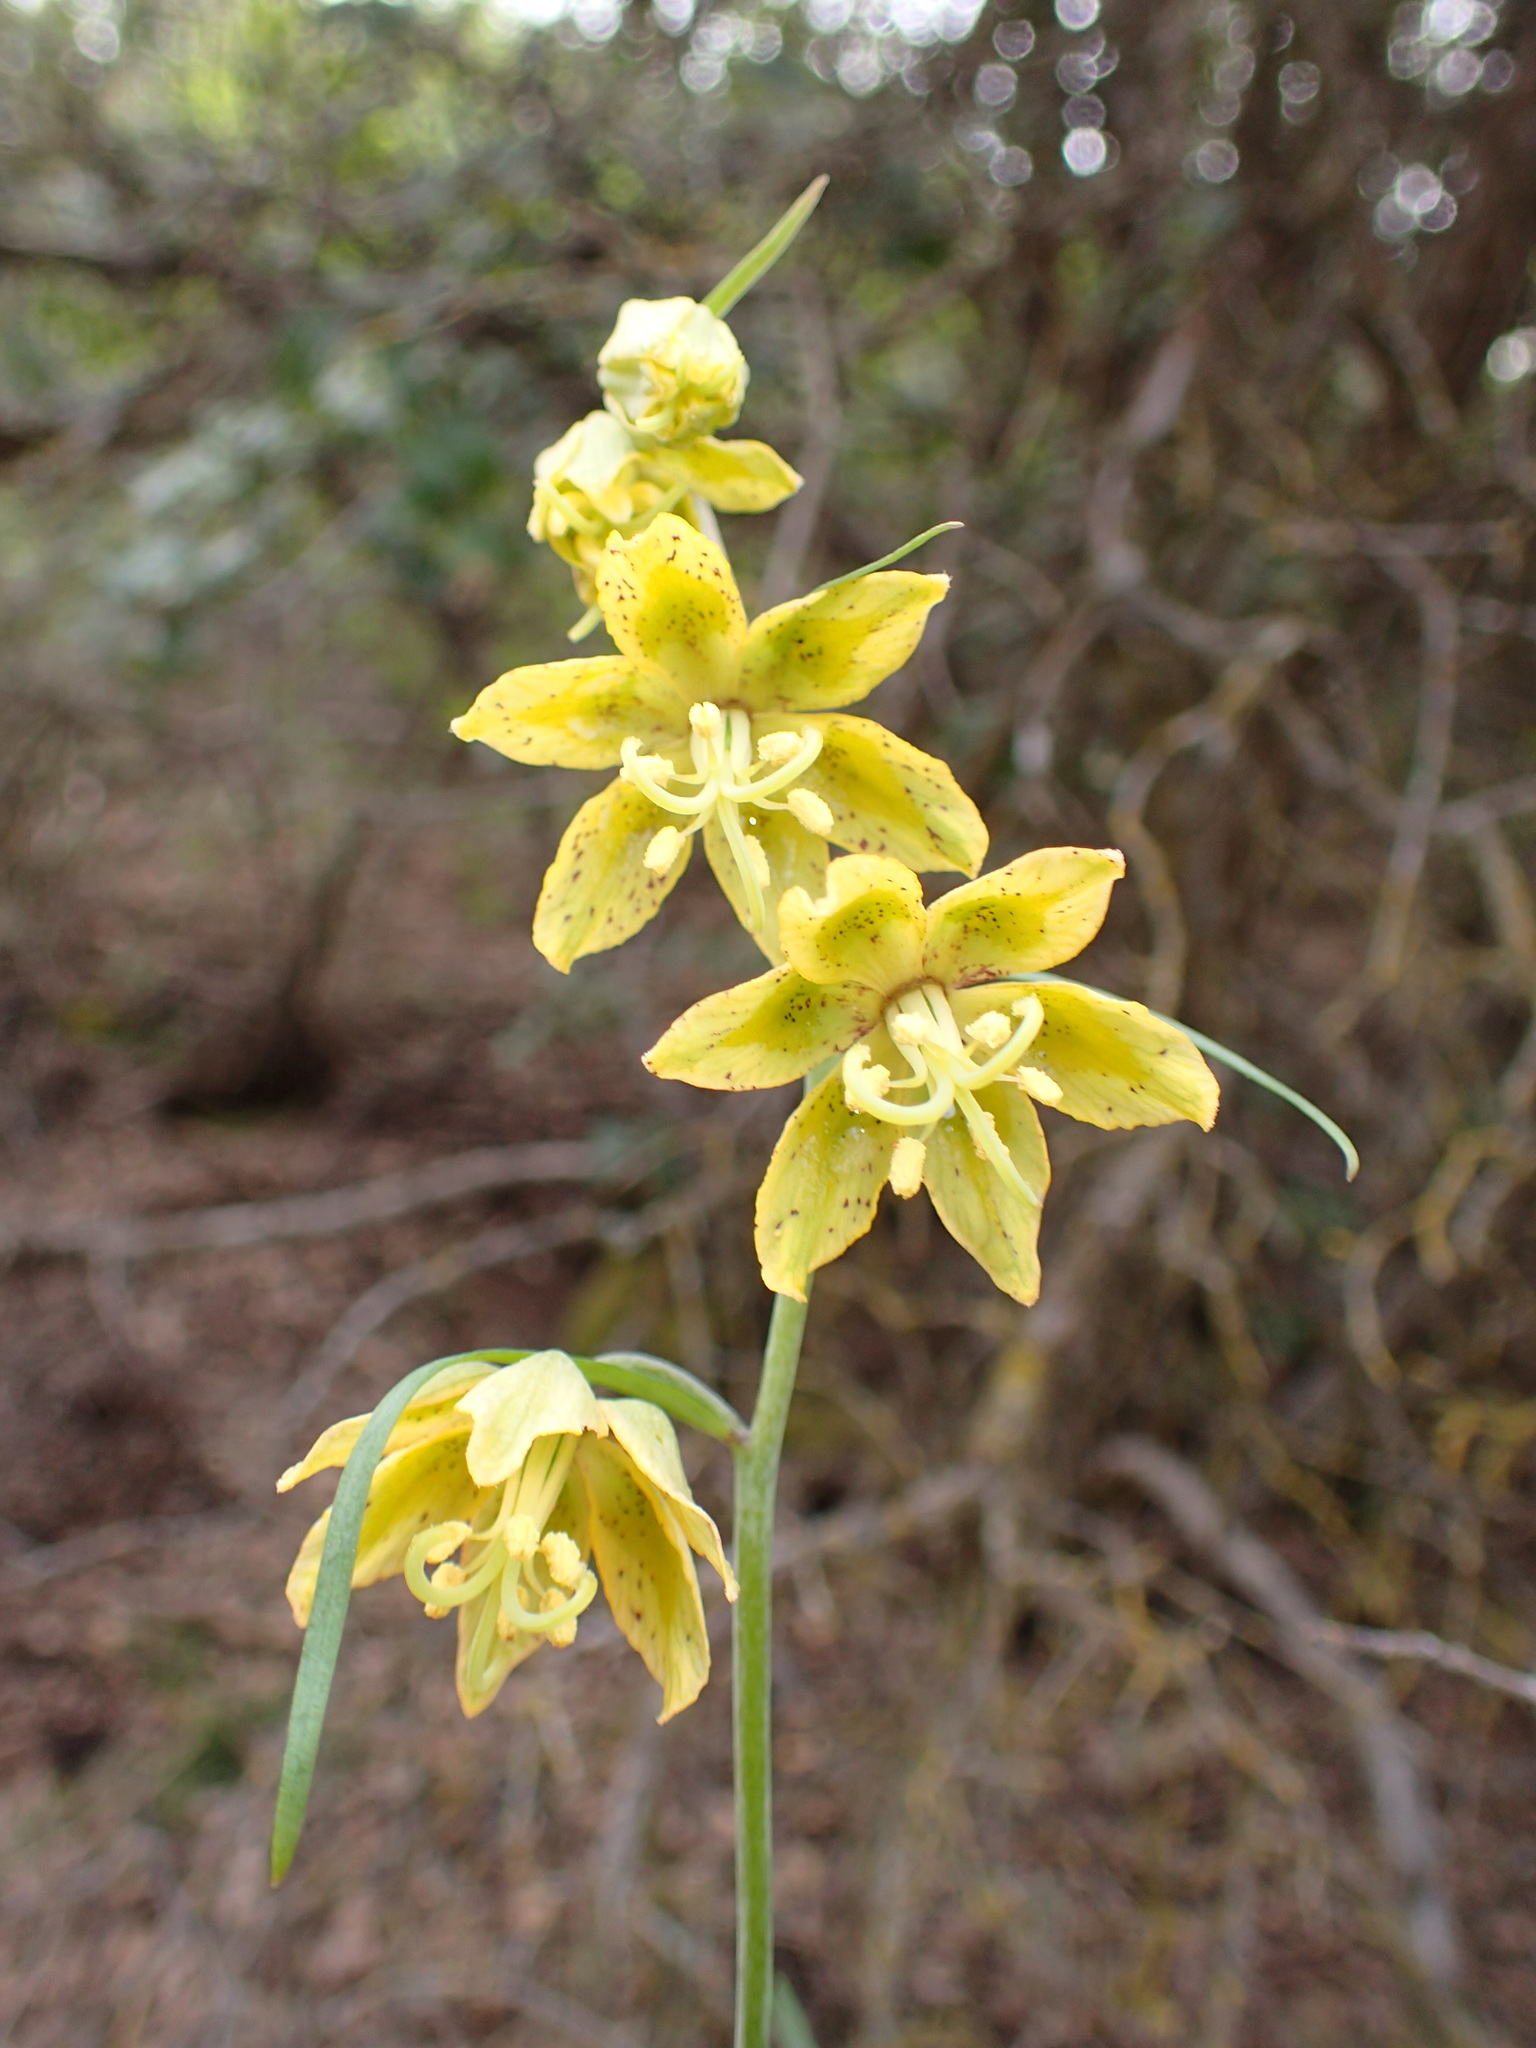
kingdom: Plantae
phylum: Tracheophyta
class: Liliopsida
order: Liliales
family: Liliaceae
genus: Fritillaria
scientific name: Fritillaria ojaiensis
